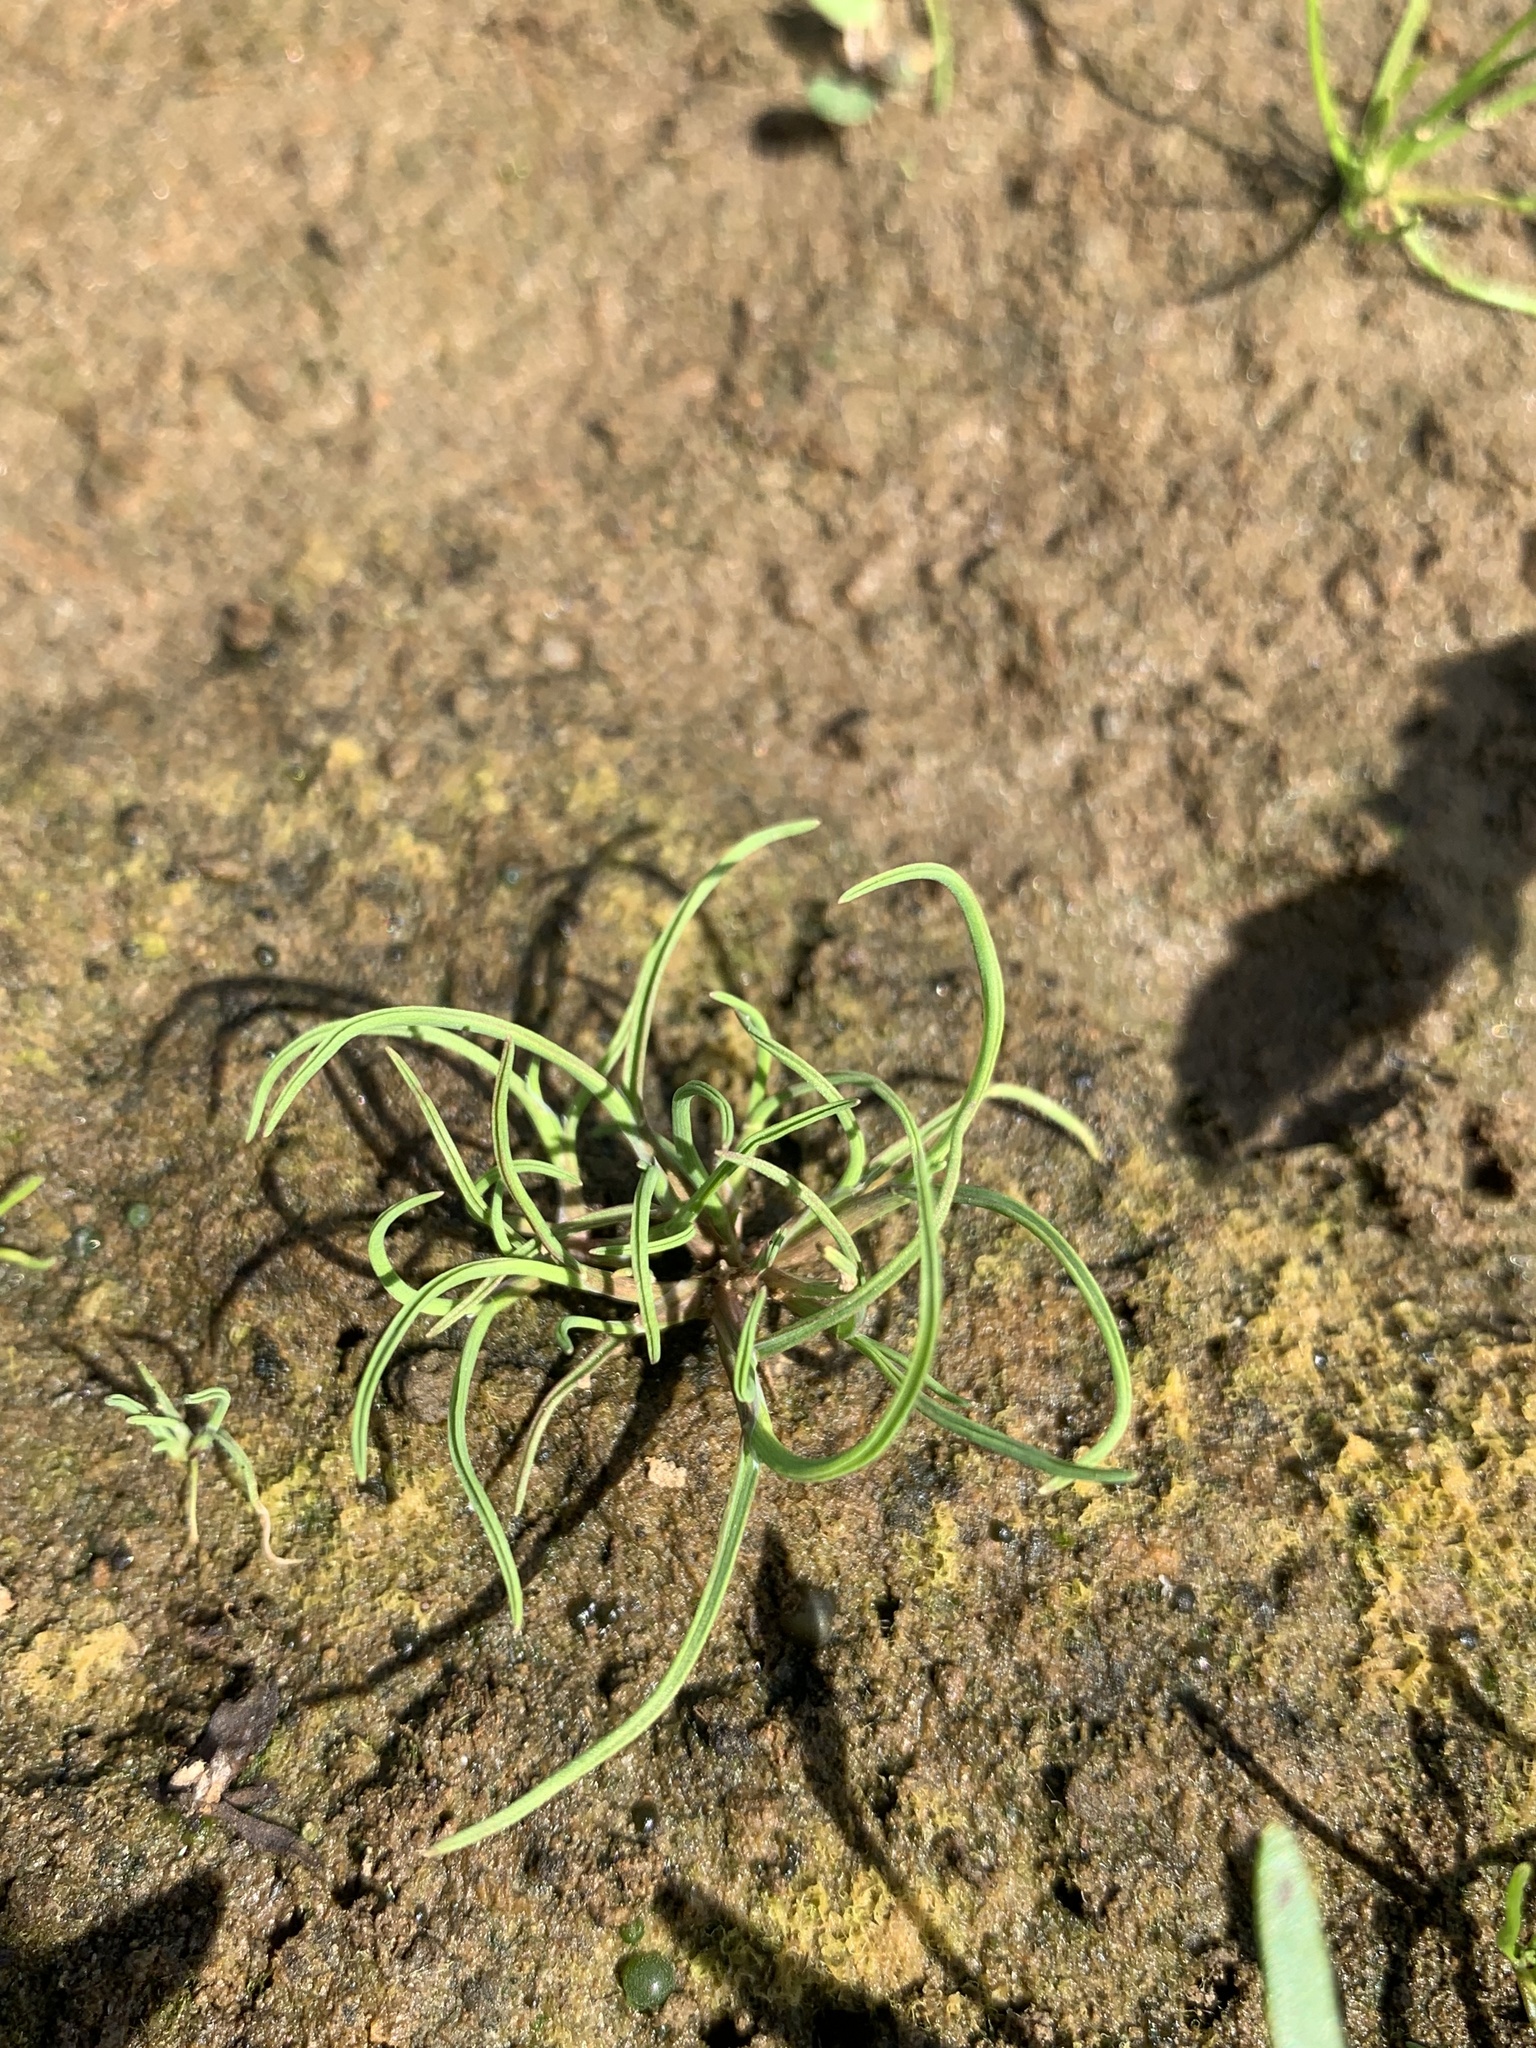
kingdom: Plantae
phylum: Tracheophyta
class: Liliopsida
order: Poales
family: Poaceae
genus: Coleanthus
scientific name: Coleanthus subtilis
